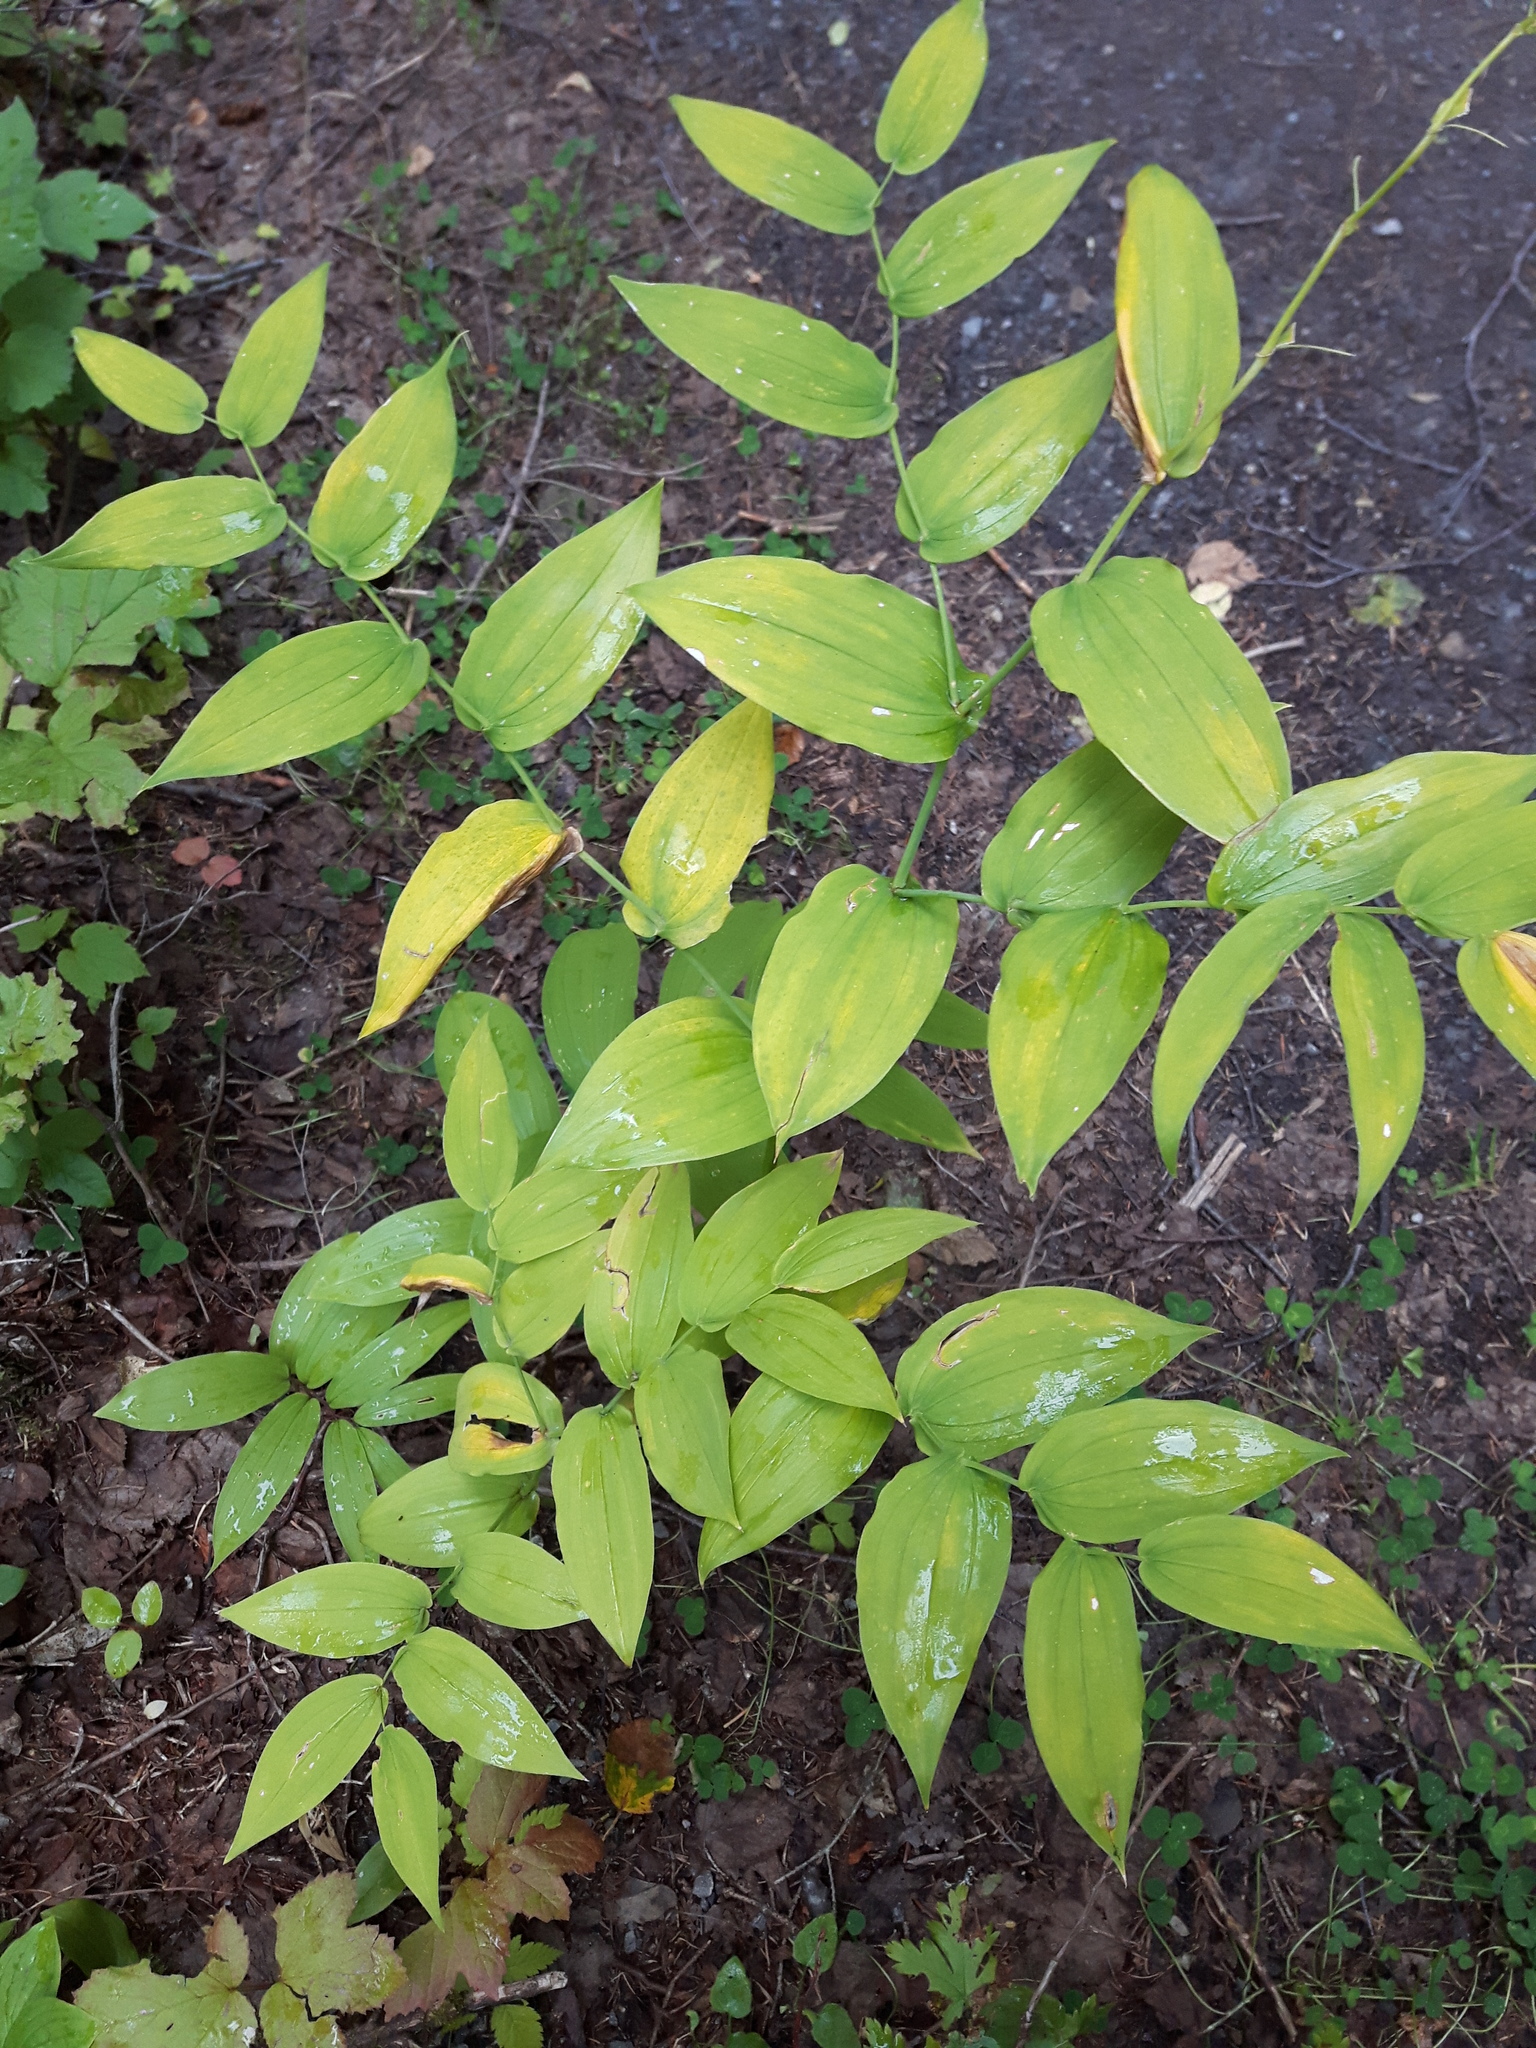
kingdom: Plantae
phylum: Tracheophyta
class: Liliopsida
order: Liliales
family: Liliaceae
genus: Streptopus
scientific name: Streptopus amplexifolius
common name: Clasp twisted stalk
